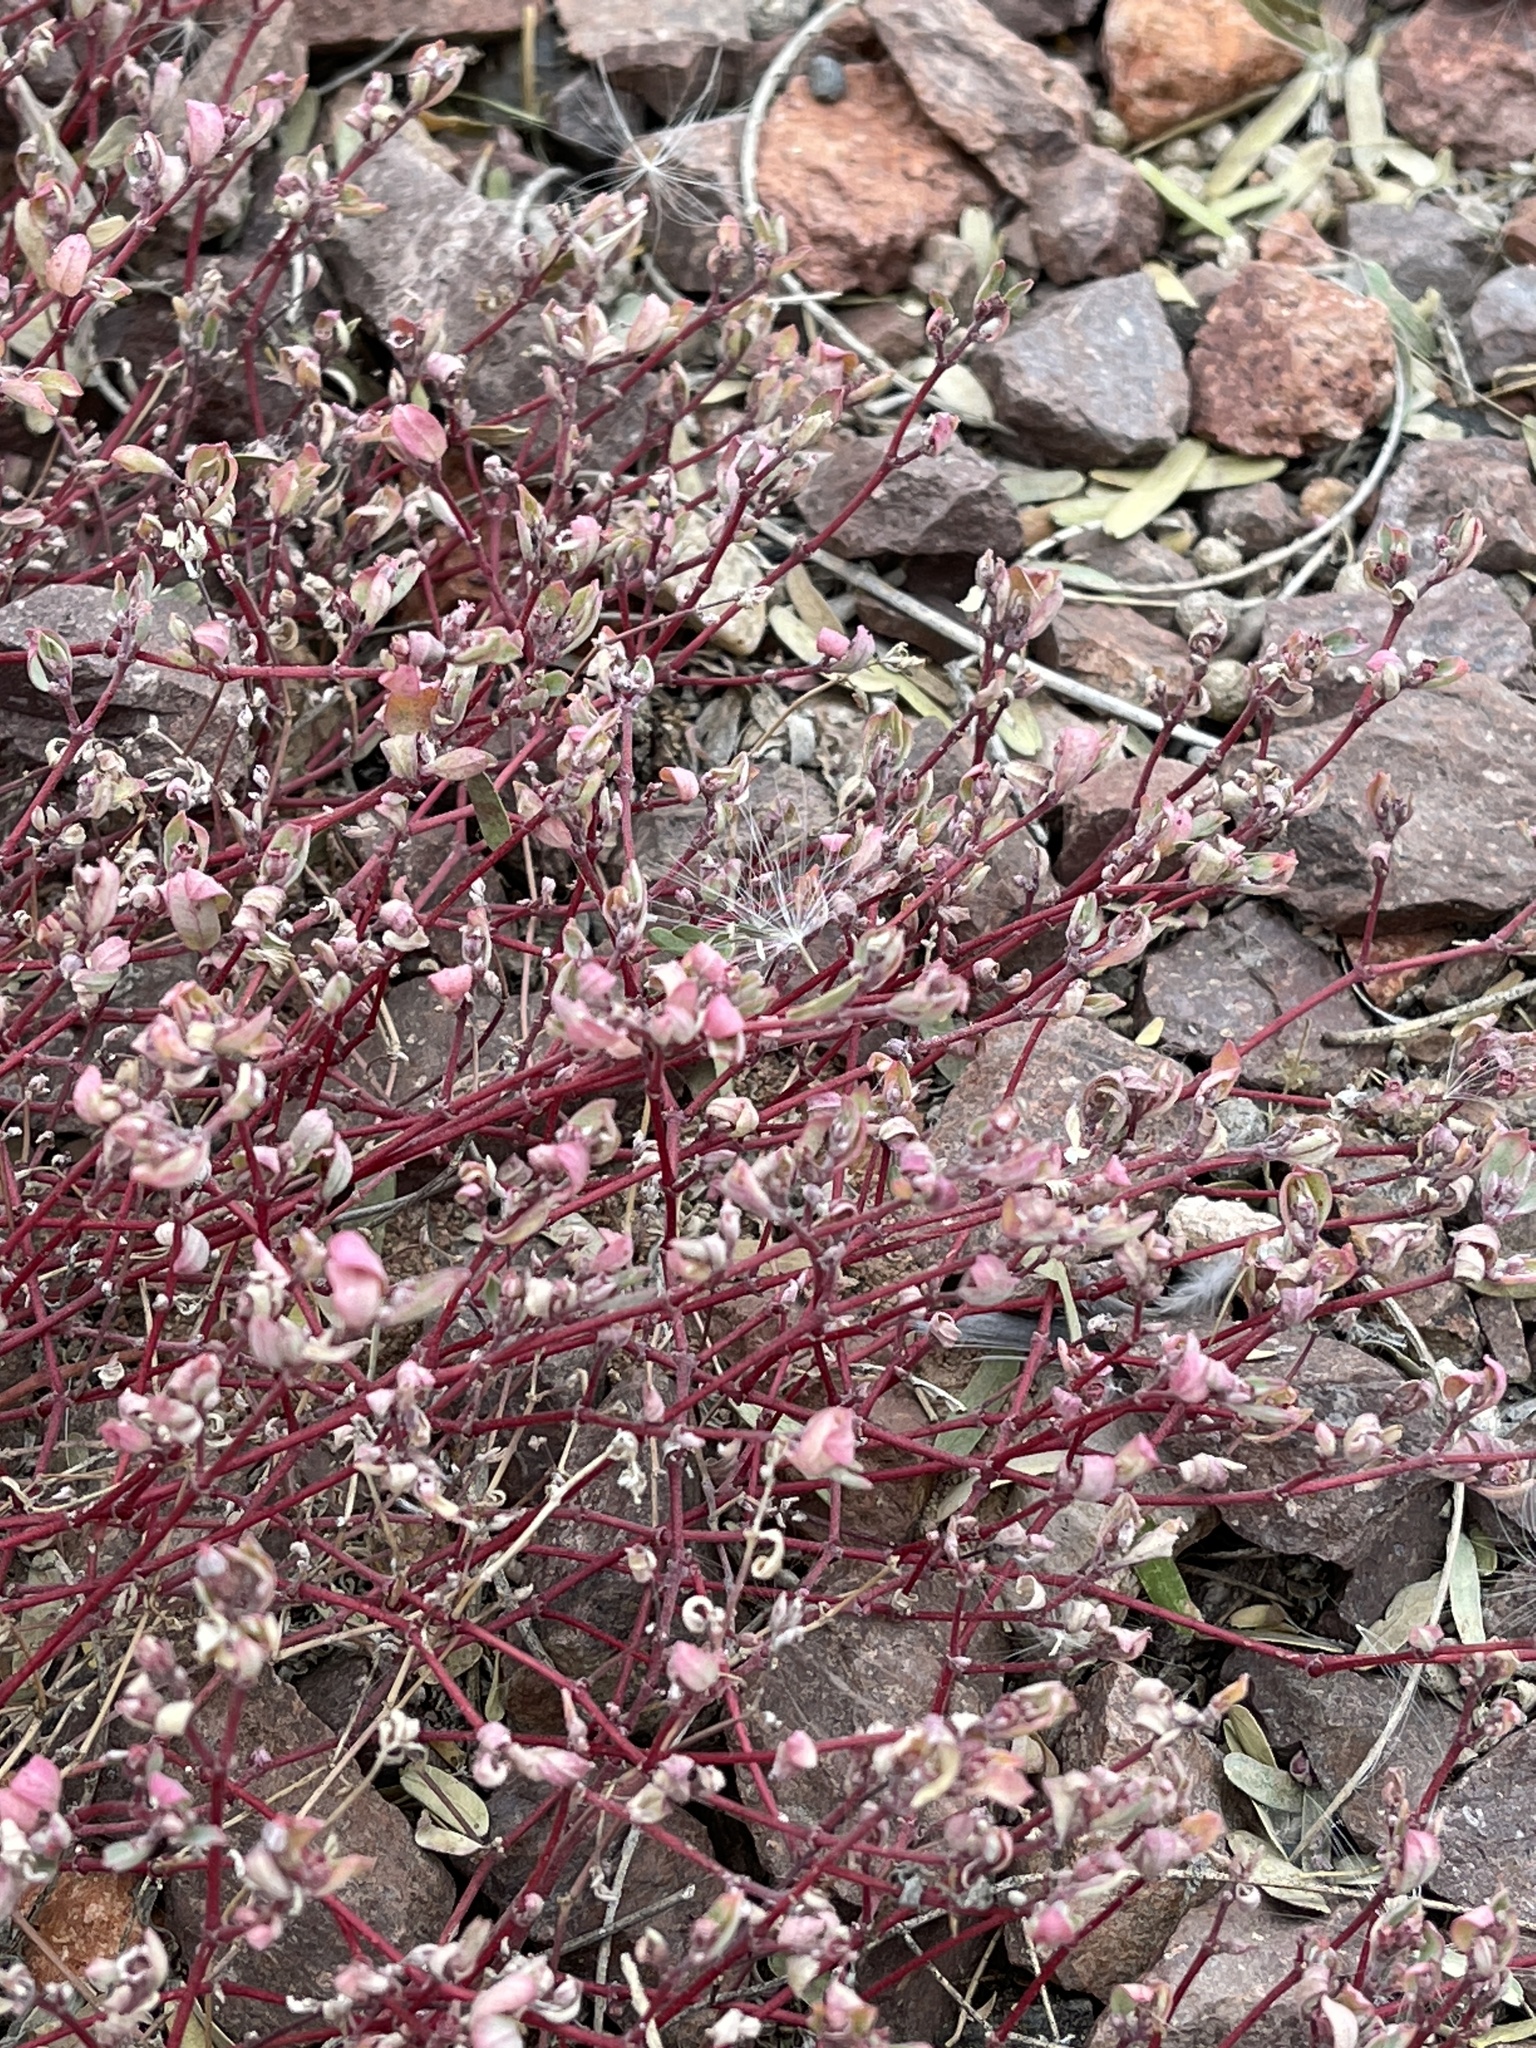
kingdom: Plantae
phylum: Tracheophyta
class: Magnoliopsida
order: Malpighiales
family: Euphorbiaceae
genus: Euphorbia
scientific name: Euphorbia pediculifera
